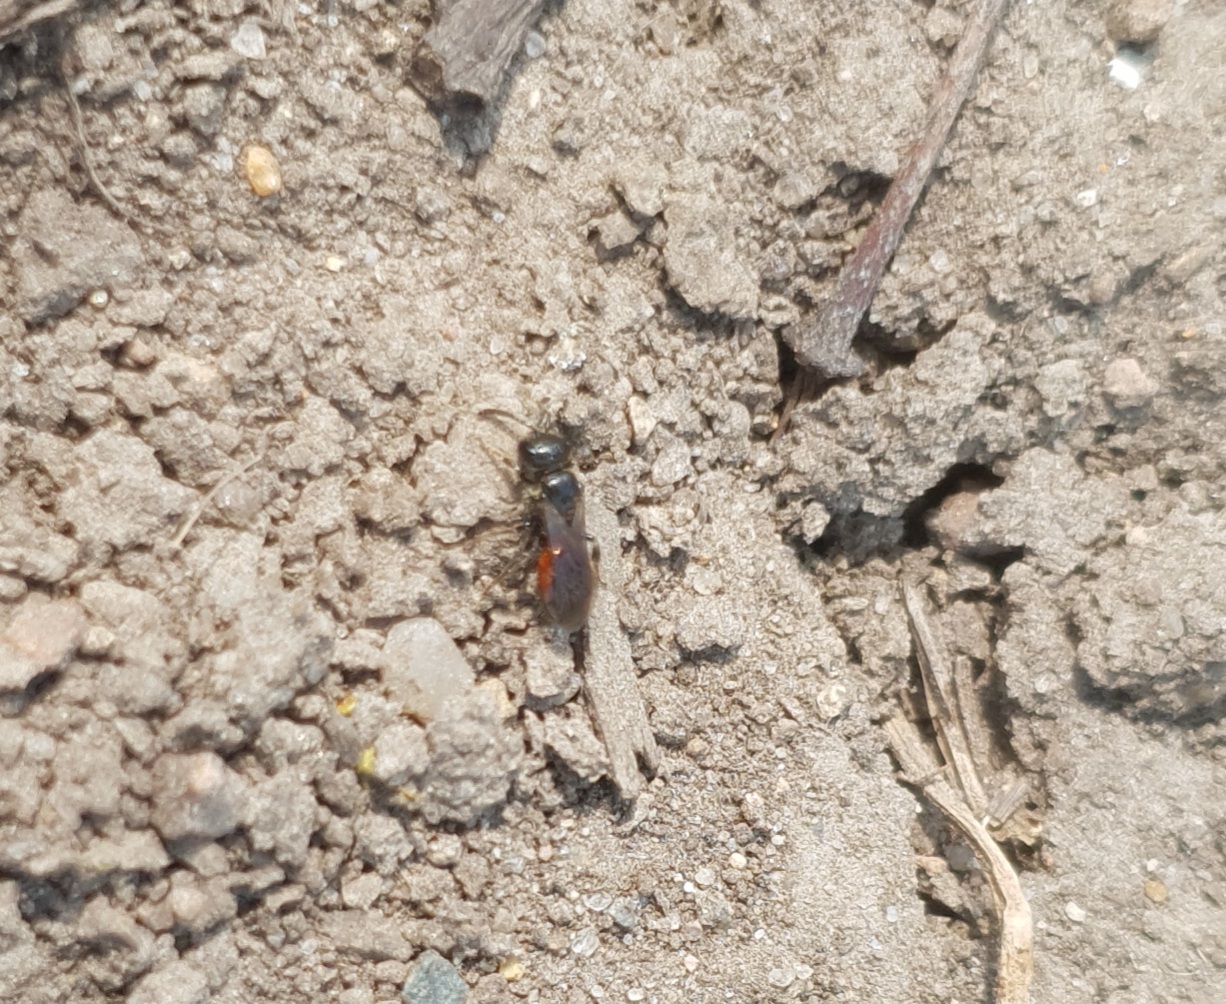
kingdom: Animalia
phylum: Arthropoda
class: Insecta
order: Hymenoptera
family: Halictidae
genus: Sphecodes
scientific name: Sphecodes
